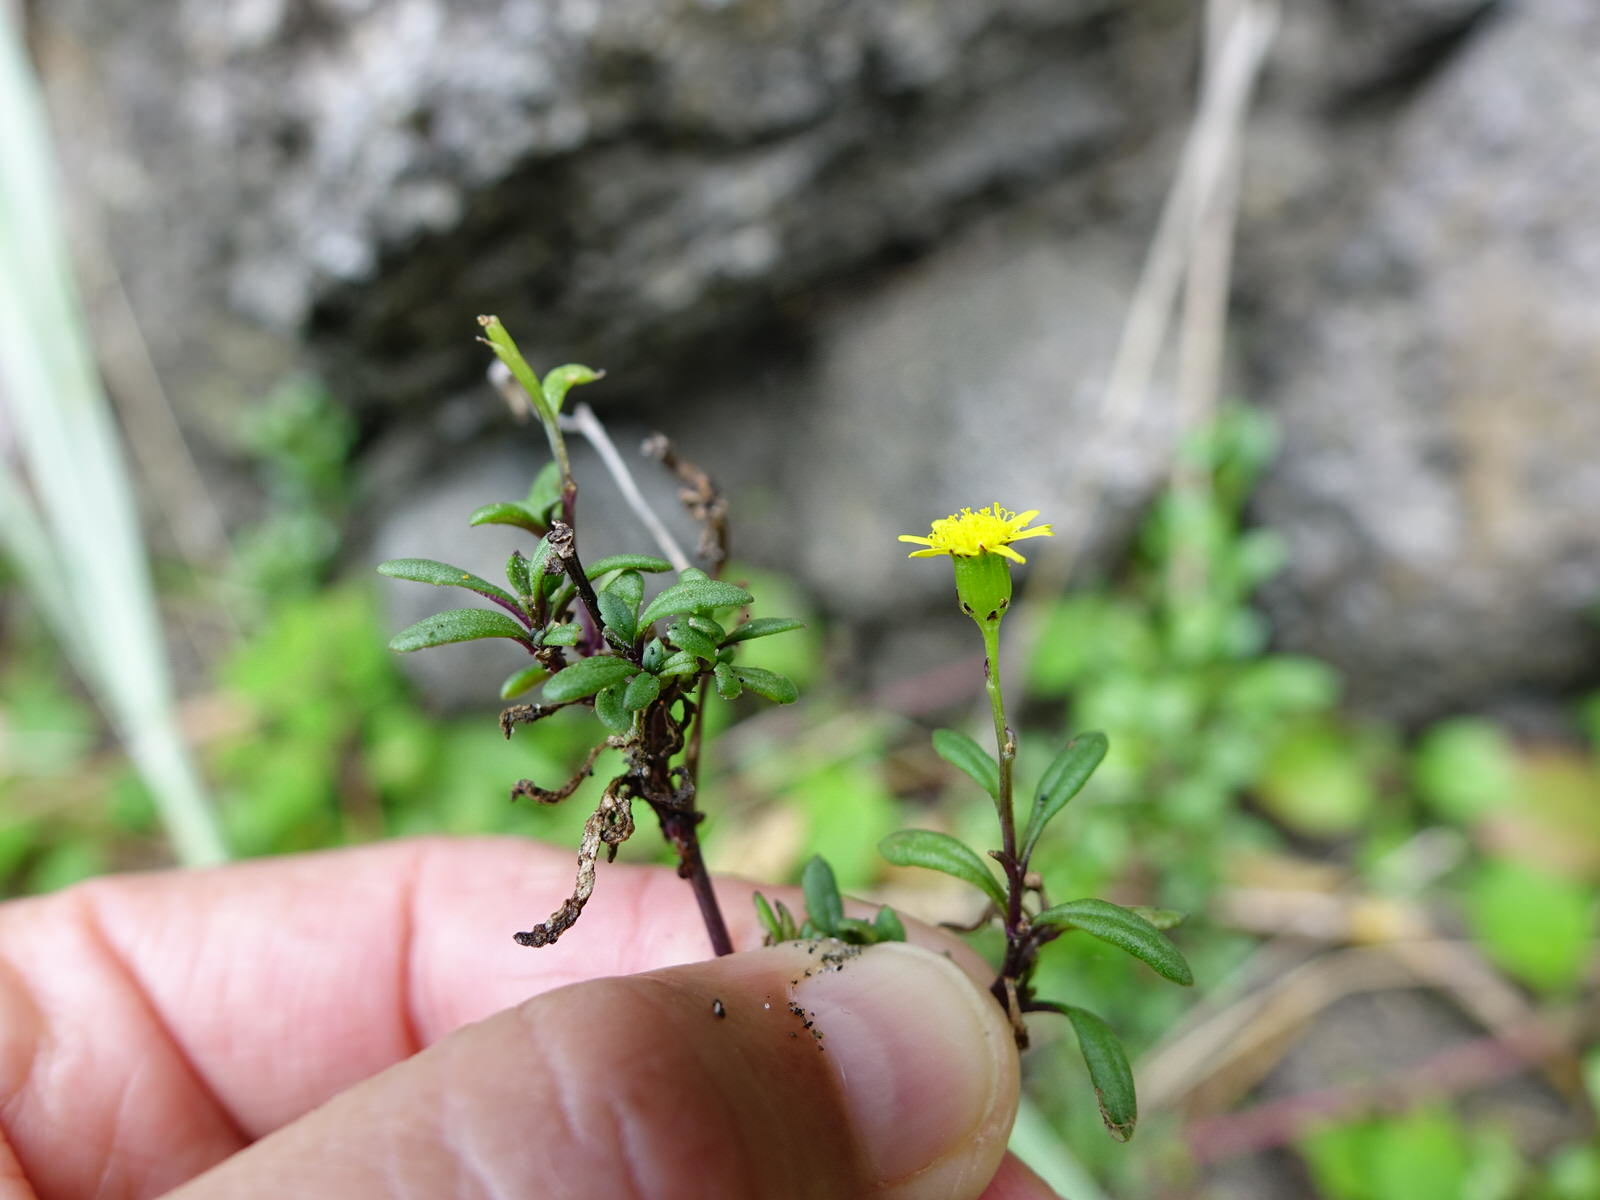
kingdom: Plantae
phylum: Tracheophyta
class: Magnoliopsida
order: Asterales
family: Asteraceae
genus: Senecio
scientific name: Senecio lautus
